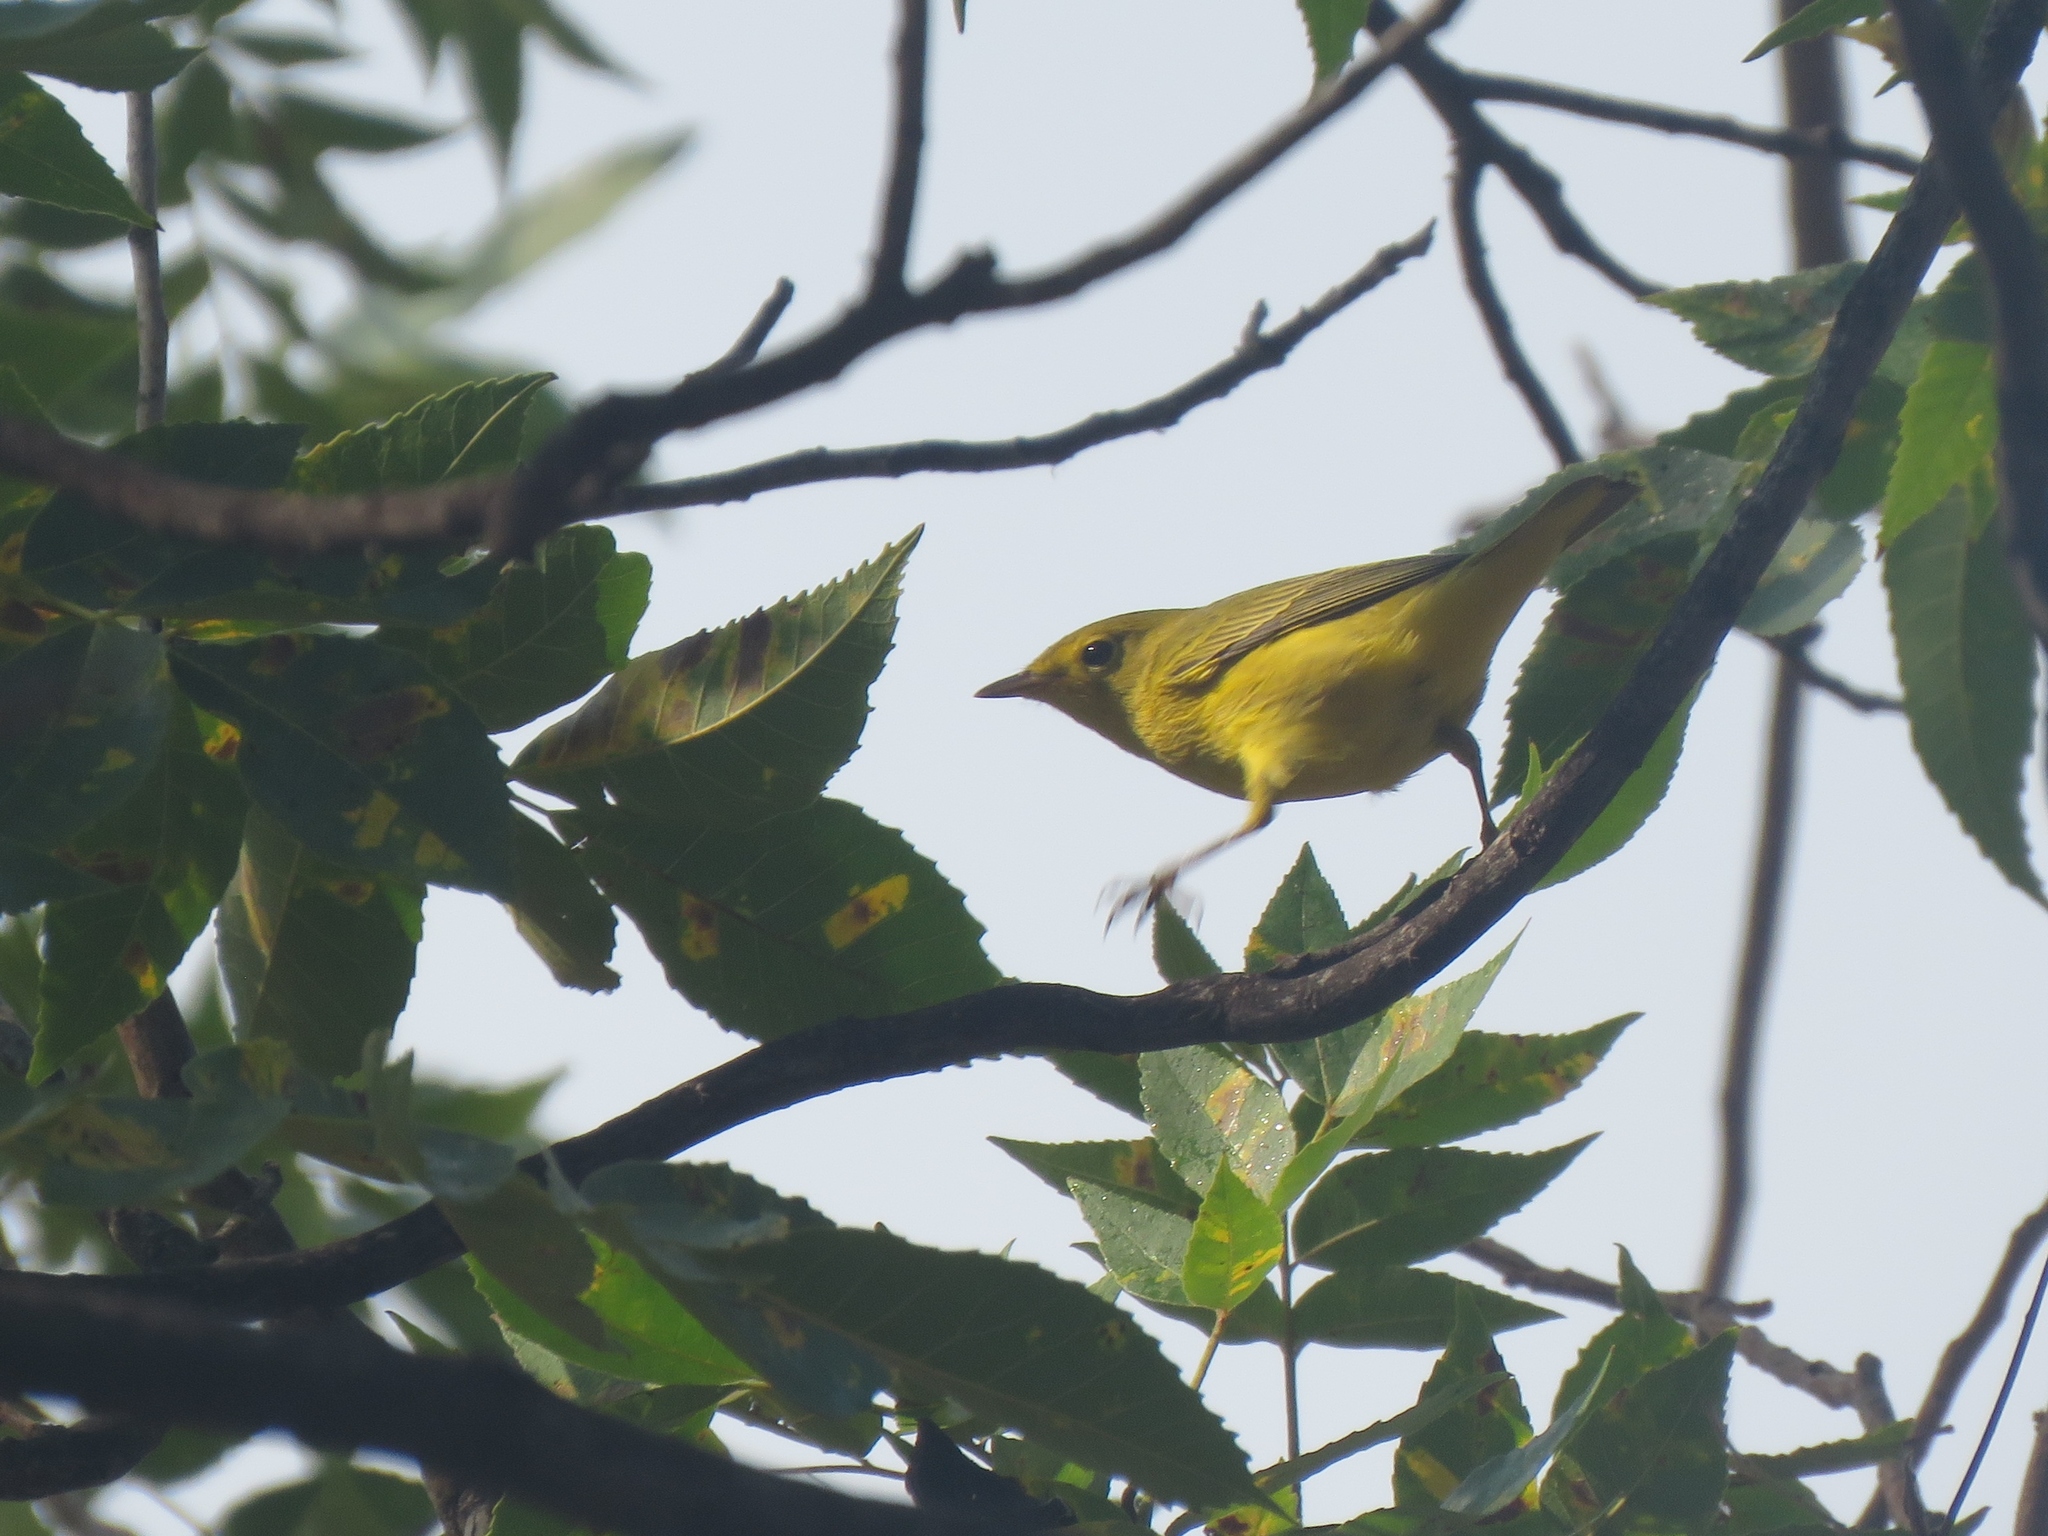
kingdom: Animalia
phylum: Chordata
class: Aves
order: Passeriformes
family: Parulidae
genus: Setophaga
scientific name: Setophaga petechia
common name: Yellow warbler
